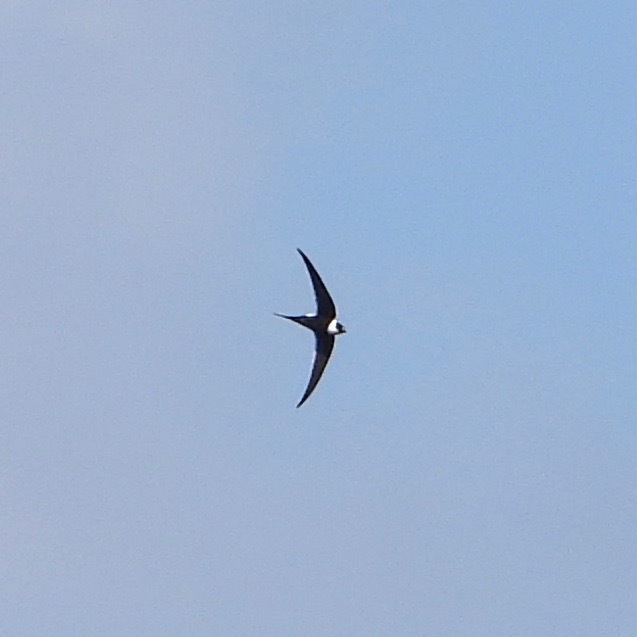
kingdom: Animalia
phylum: Chordata
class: Aves
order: Apodiformes
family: Apodidae
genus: Panyptila
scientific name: Panyptila sanctihieronymi
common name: Great swallow-tailed swift
